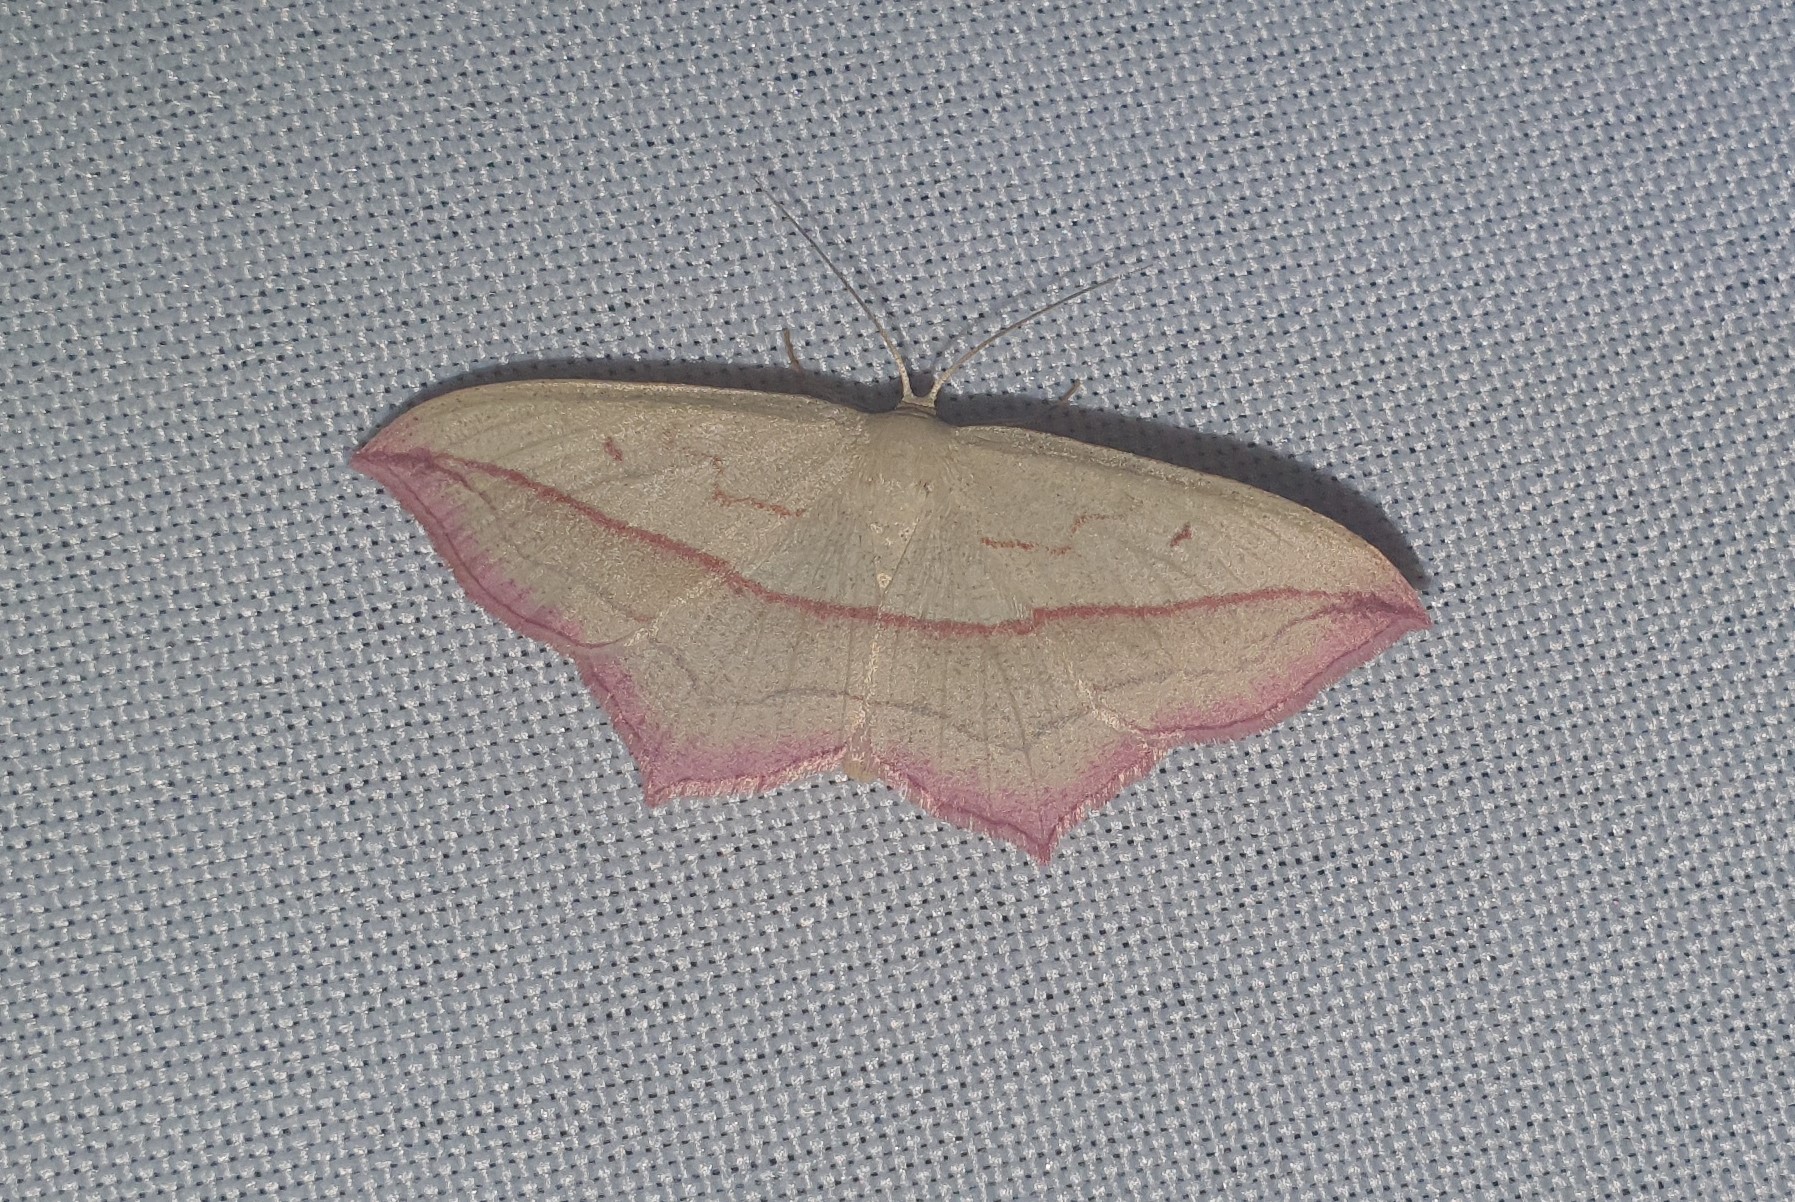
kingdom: Animalia
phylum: Arthropoda
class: Insecta
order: Lepidoptera
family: Geometridae
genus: Timandra
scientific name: Timandra comae
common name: Blood-vein
